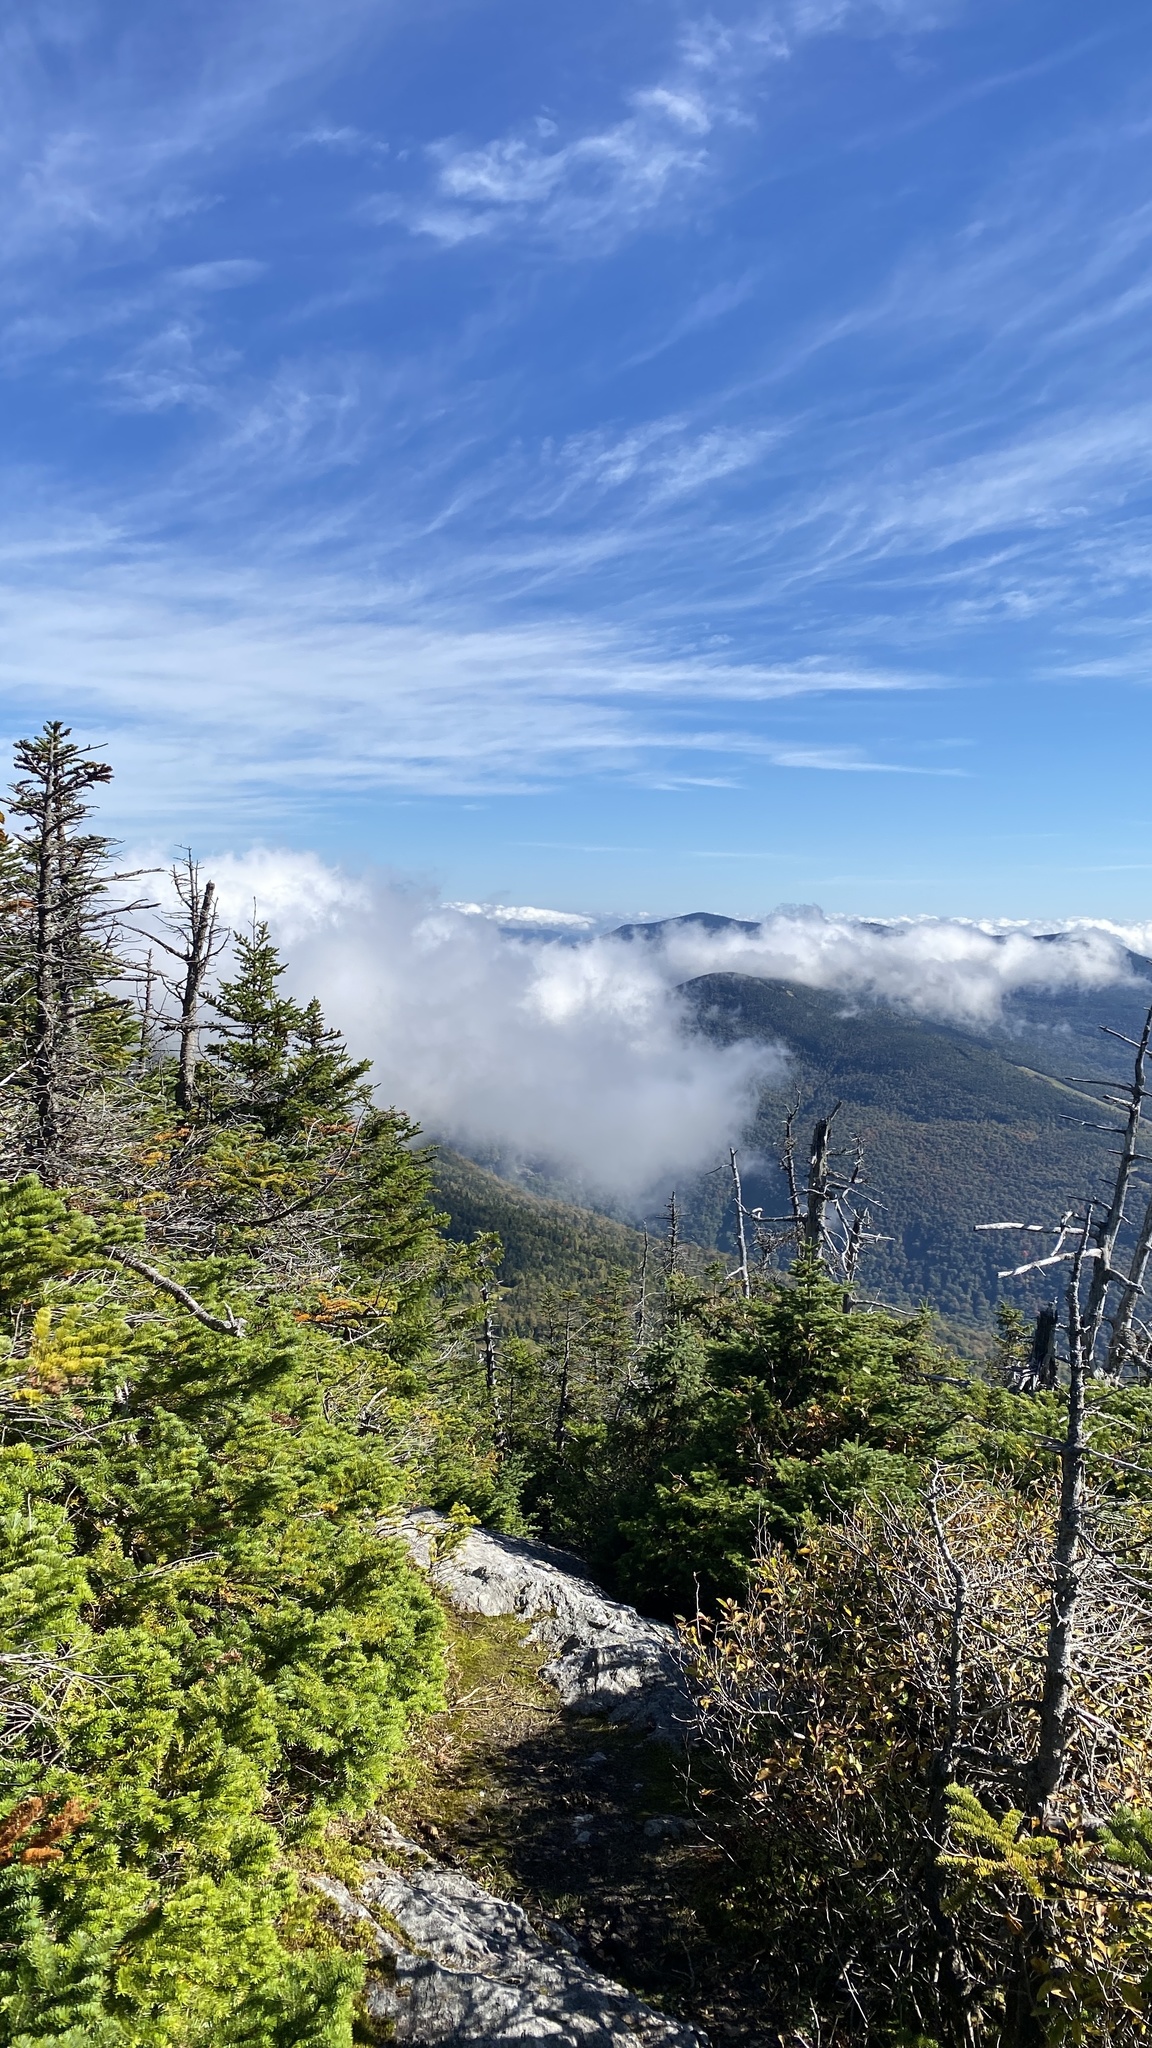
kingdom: Plantae
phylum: Tracheophyta
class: Pinopsida
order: Pinales
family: Pinaceae
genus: Abies
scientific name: Abies balsamea
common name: Balsam fir
